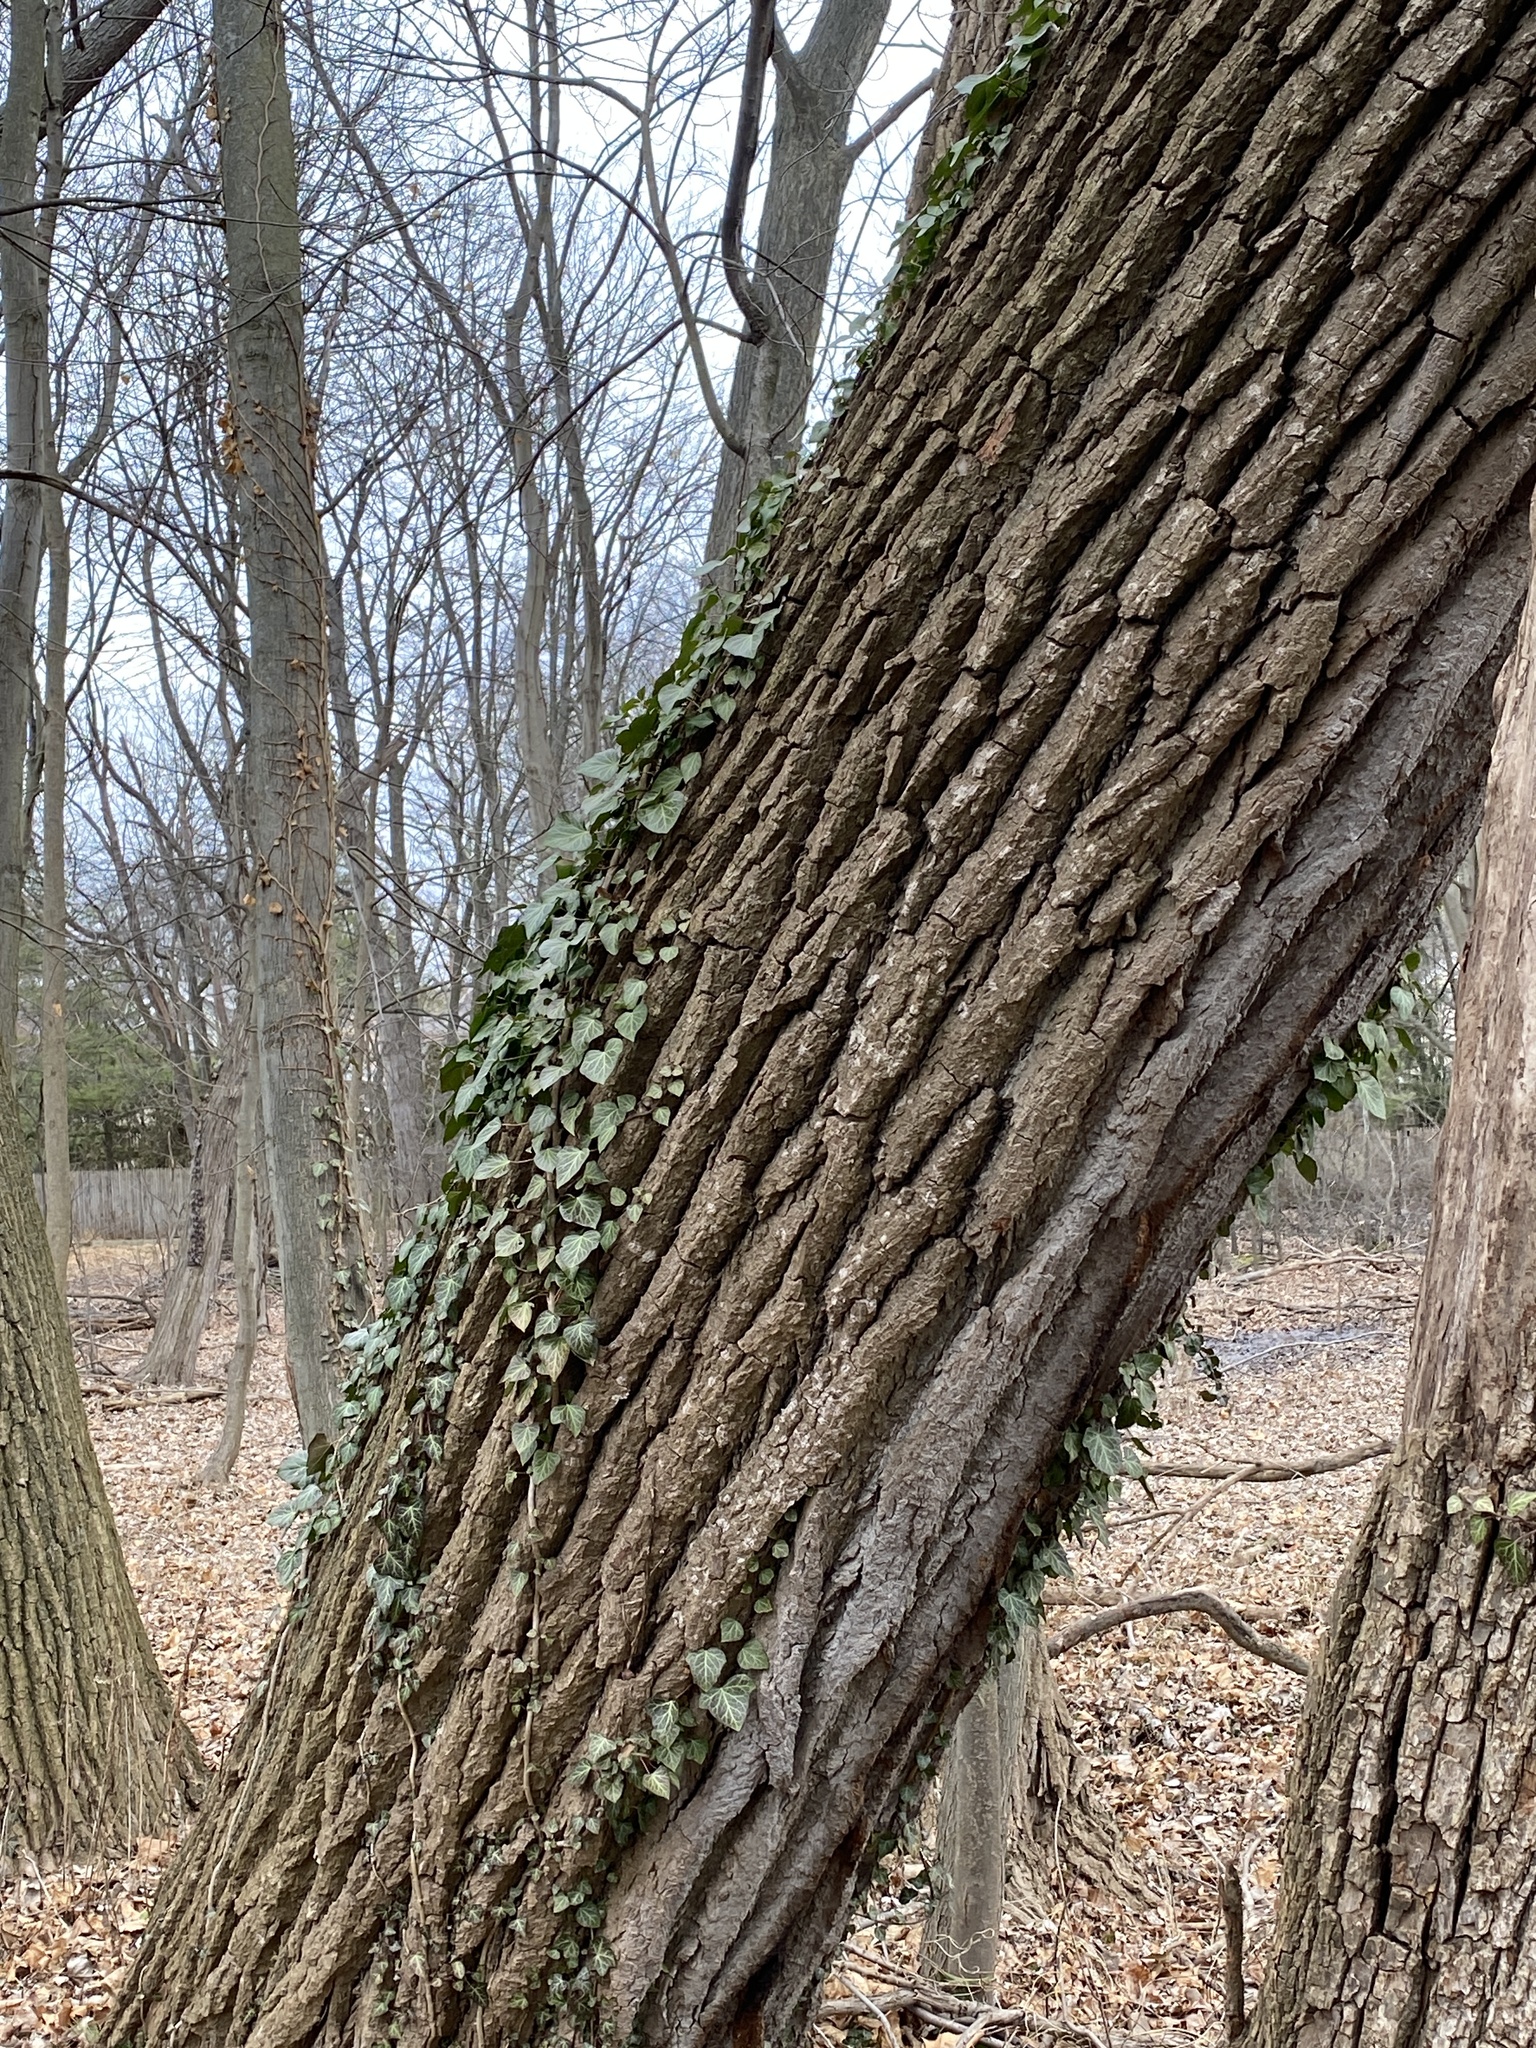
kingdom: Plantae
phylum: Tracheophyta
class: Magnoliopsida
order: Malpighiales
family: Salicaceae
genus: Populus
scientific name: Populus deltoides
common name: Eastern cottonwood
